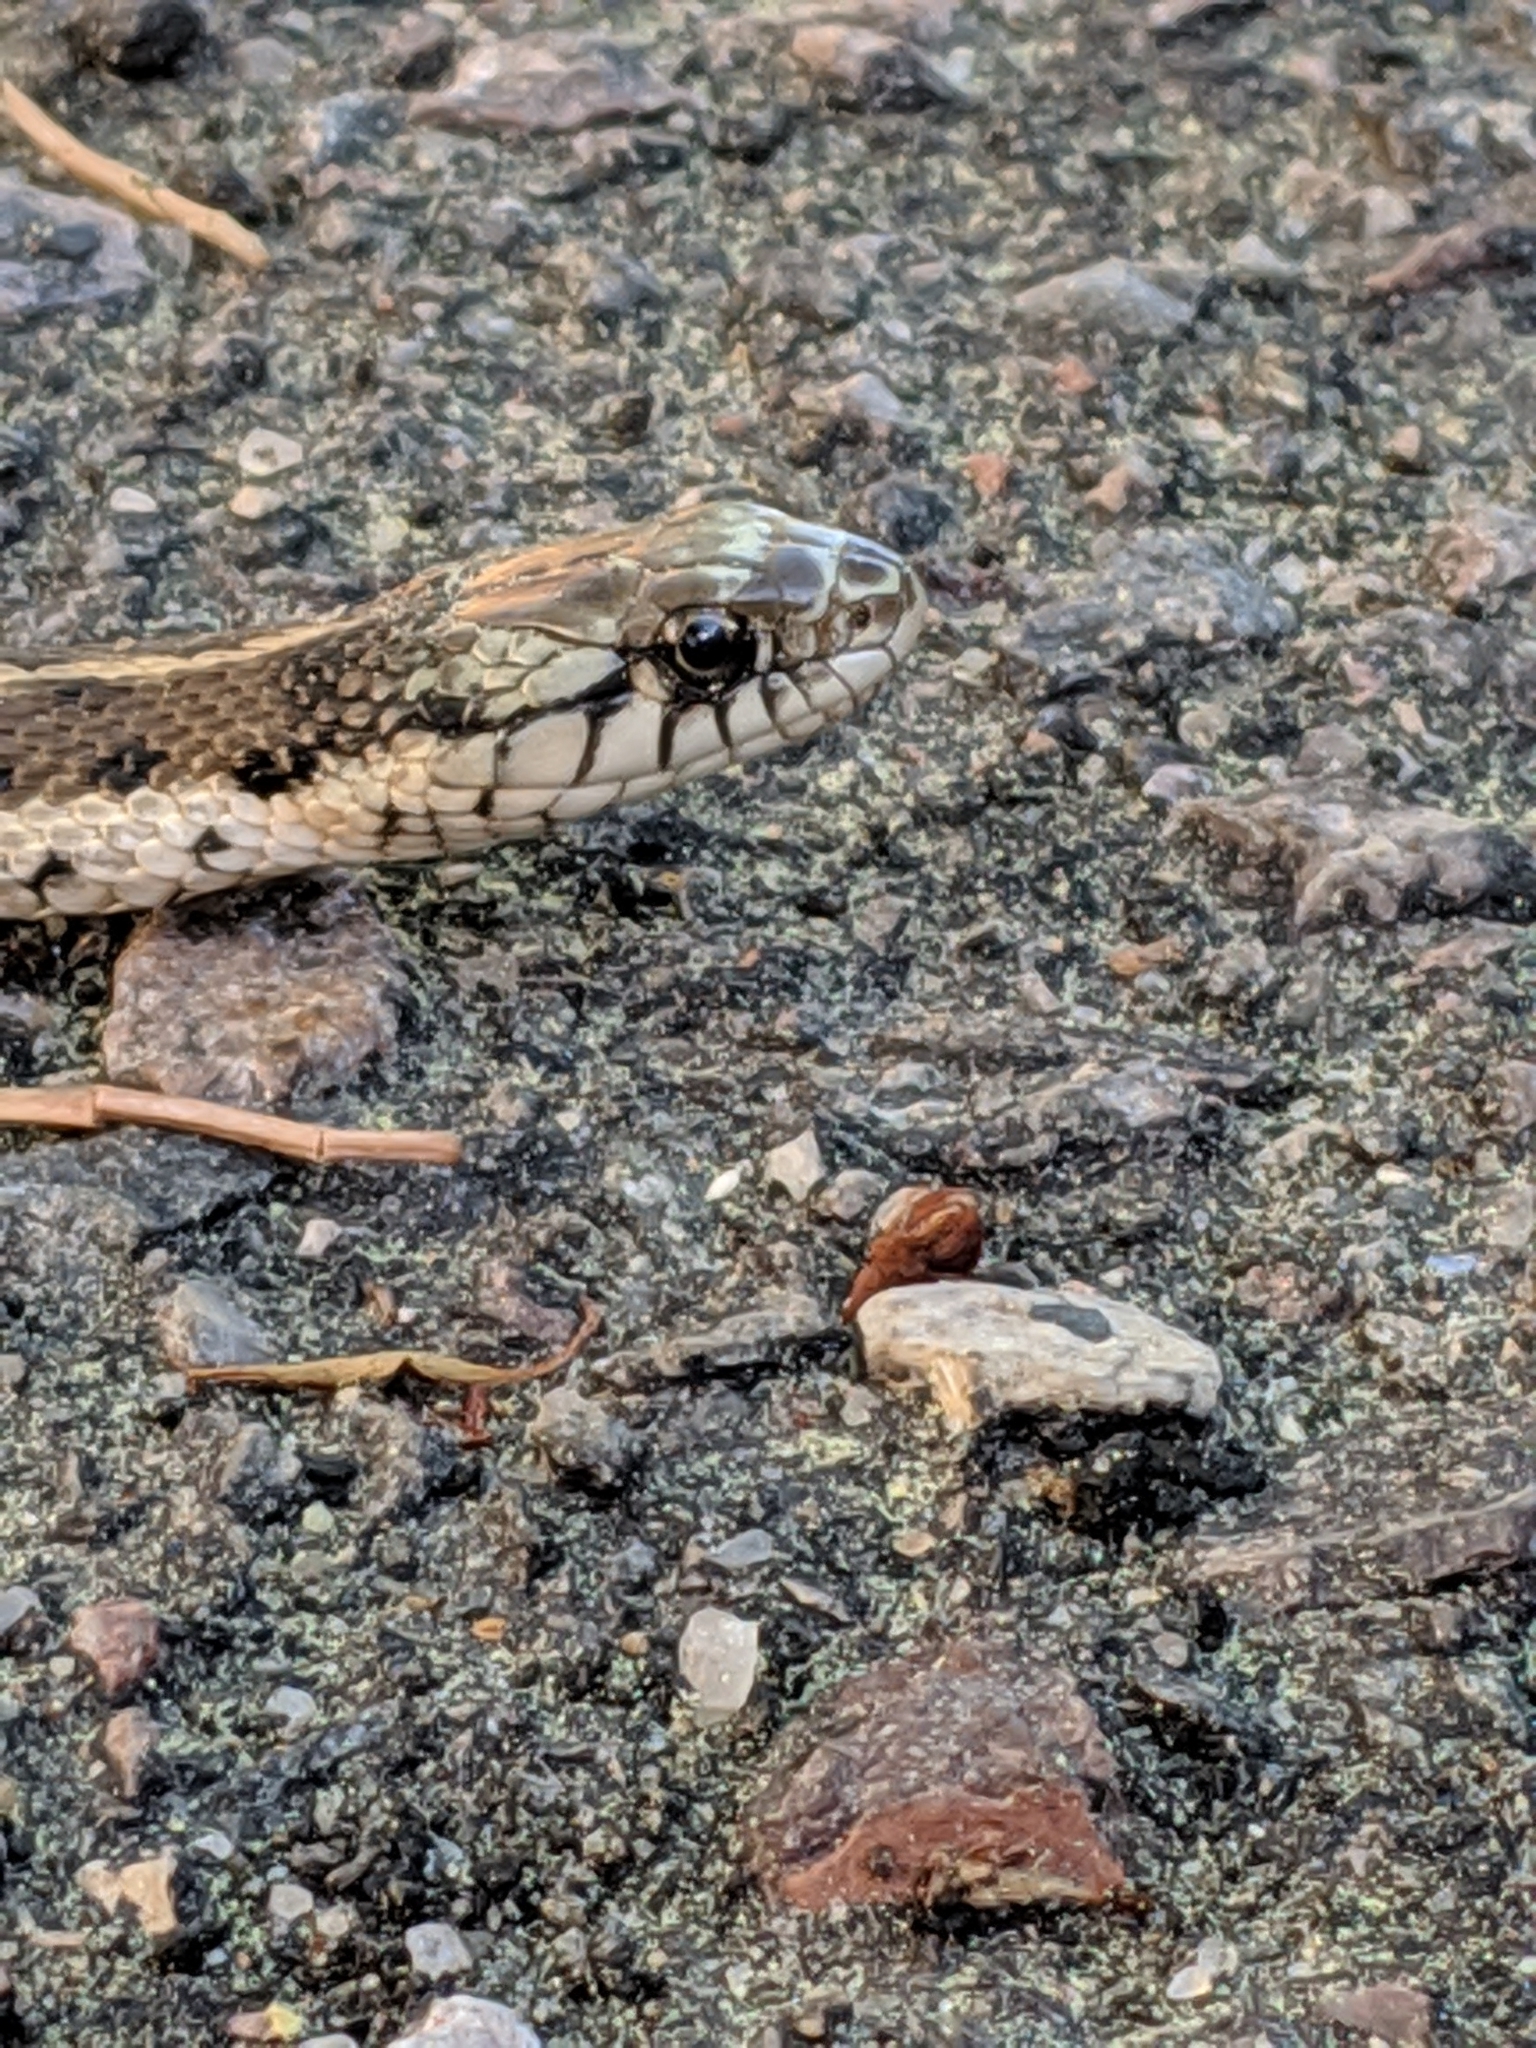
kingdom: Animalia
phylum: Chordata
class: Squamata
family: Colubridae
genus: Thamnophis
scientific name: Thamnophis elegans
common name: Western terrestrial garter snake
